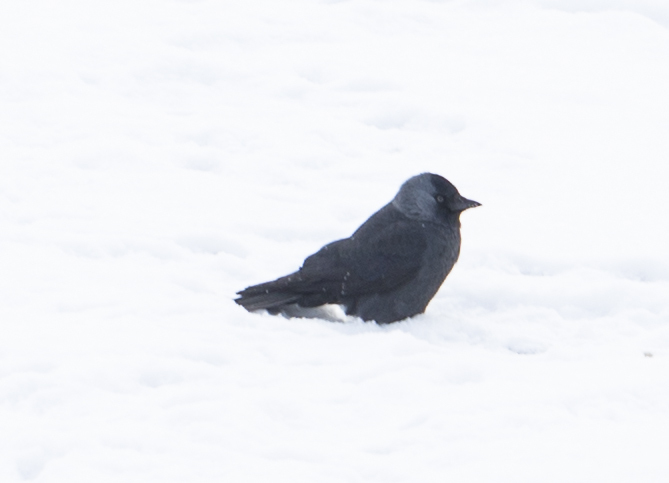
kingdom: Animalia
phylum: Chordata
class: Aves
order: Passeriformes
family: Corvidae
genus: Coloeus
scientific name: Coloeus monedula
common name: Western jackdaw
